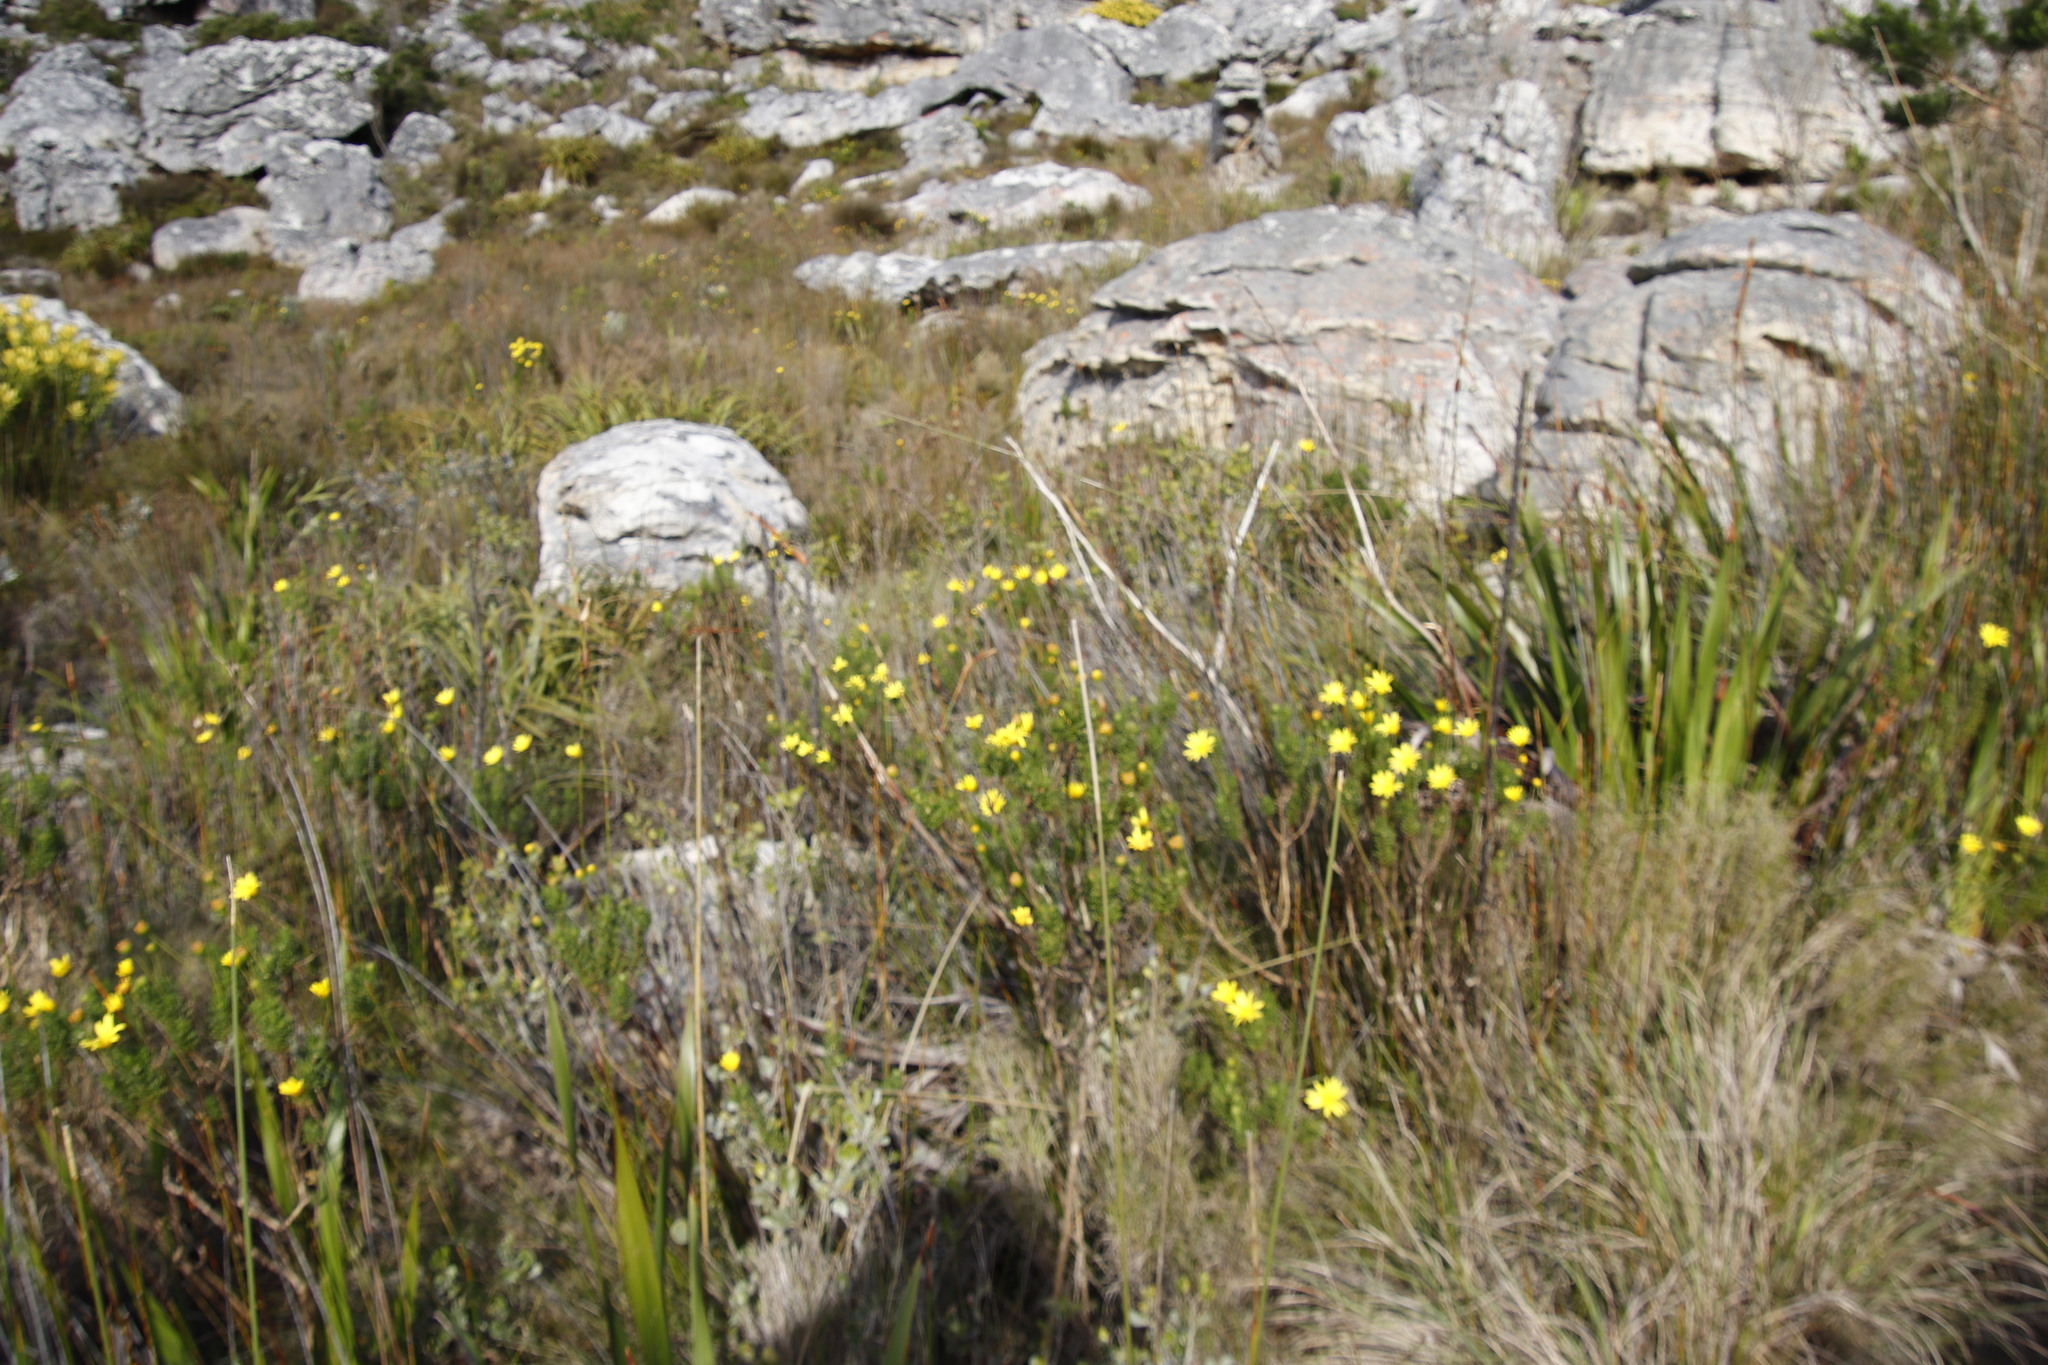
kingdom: Plantae
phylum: Tracheophyta
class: Magnoliopsida
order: Asterales
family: Asteraceae
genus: Euryops
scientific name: Euryops abrotanifolius
